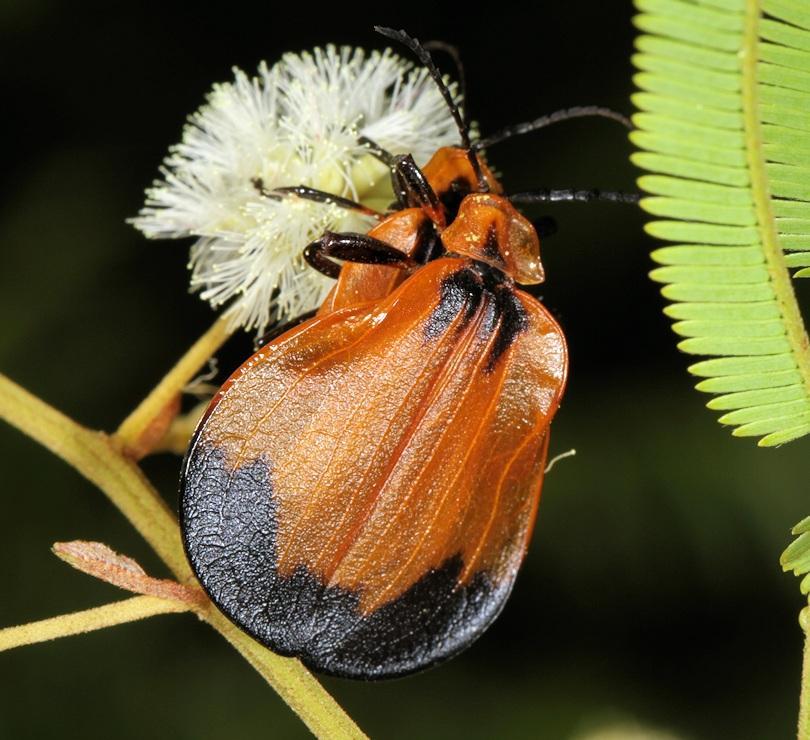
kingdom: Animalia
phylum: Arthropoda
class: Insecta
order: Coleoptera
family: Lycidae
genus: Lycus
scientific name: Lycus
